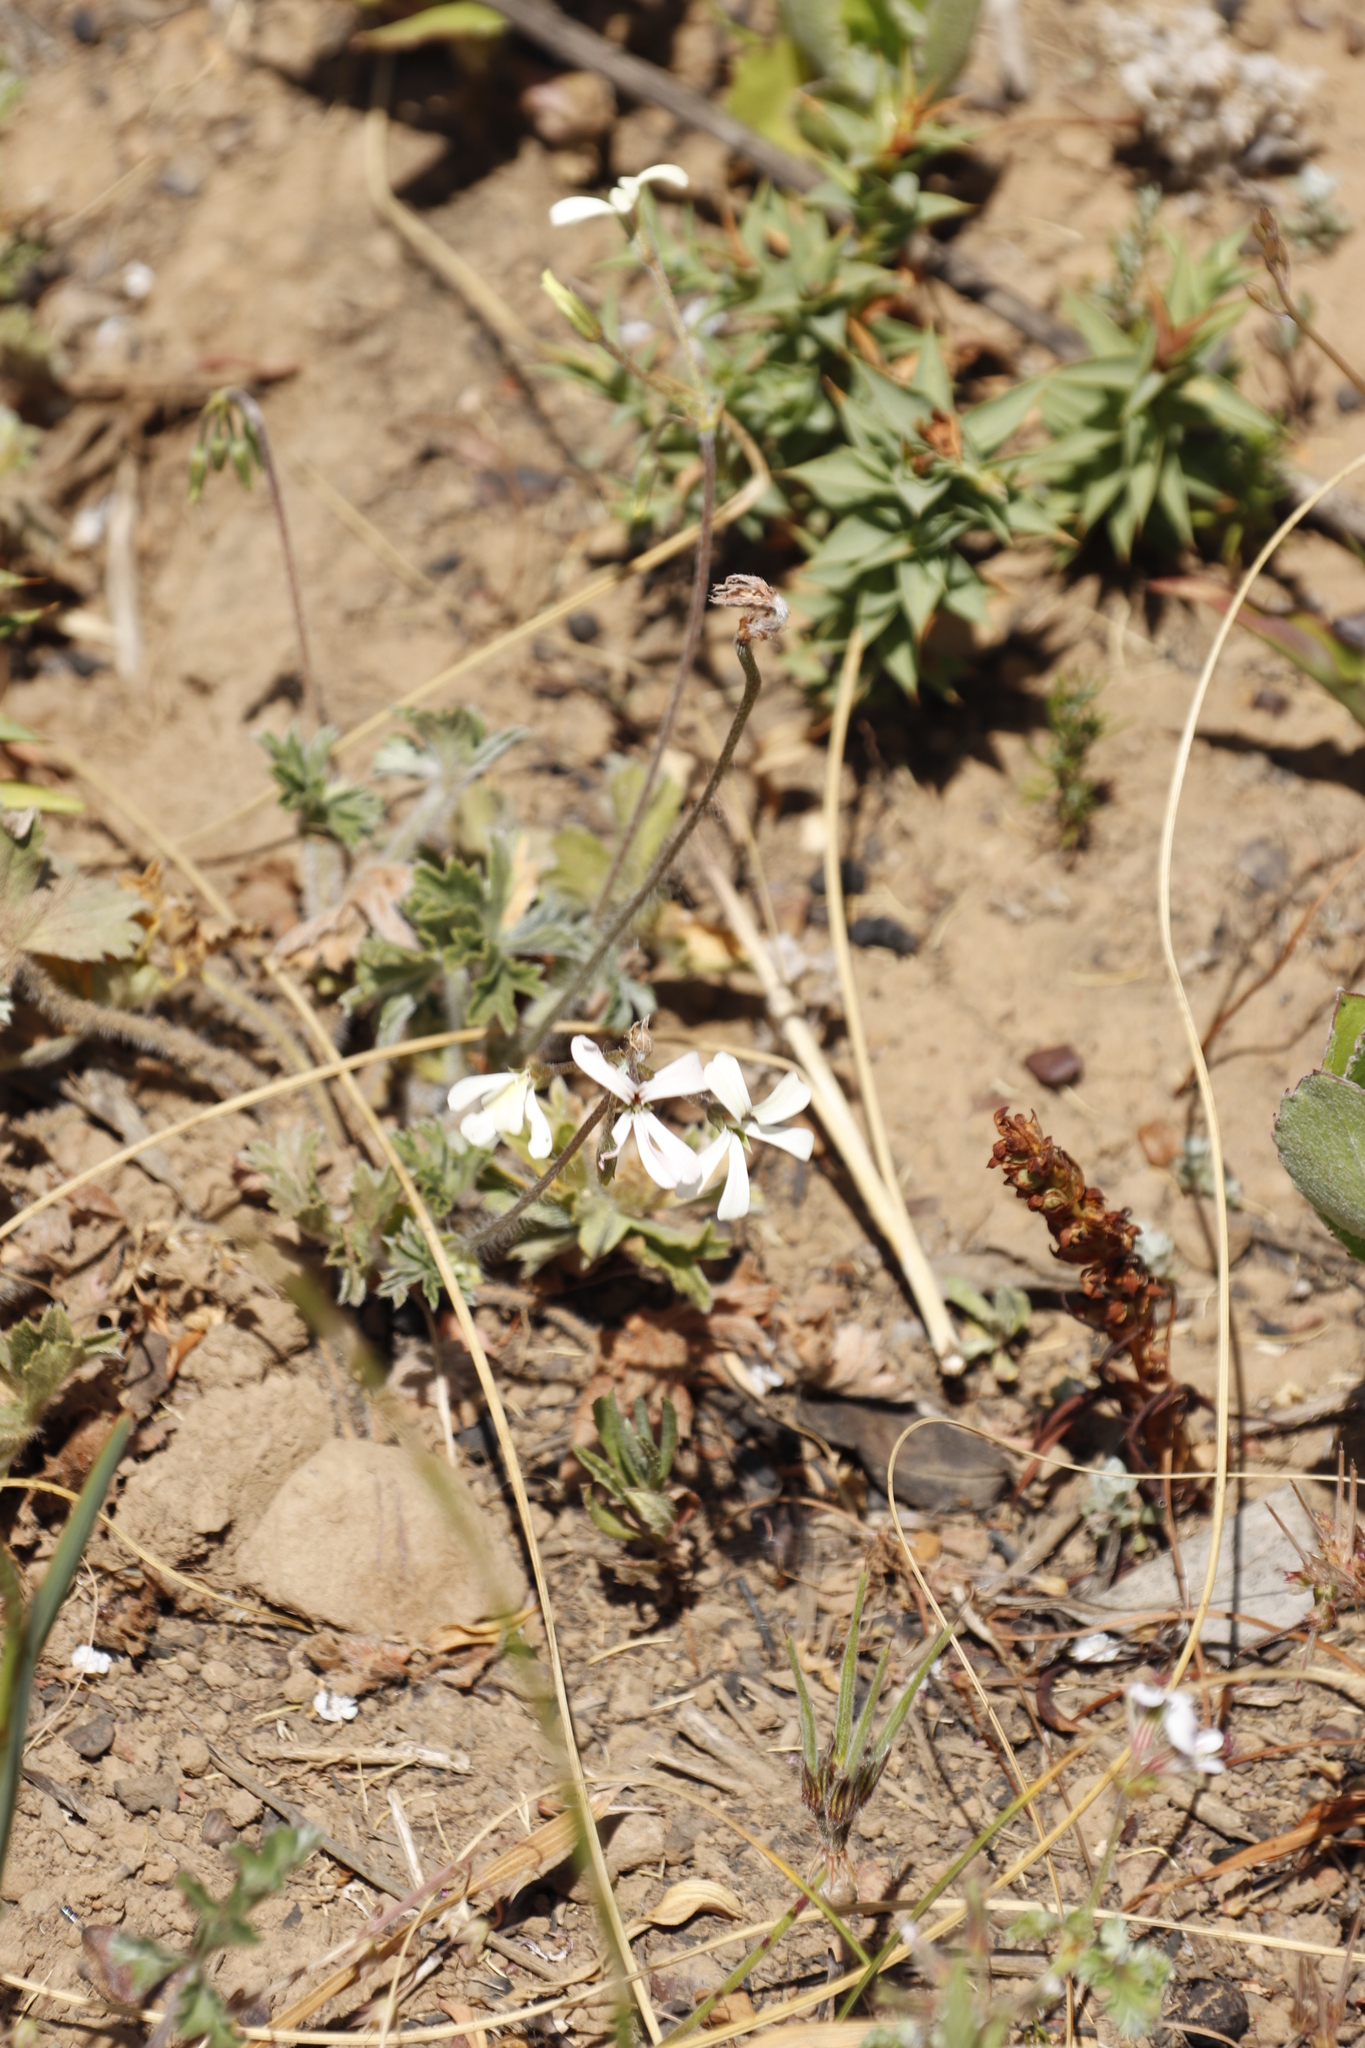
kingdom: Plantae
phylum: Tracheophyta
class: Magnoliopsida
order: Geraniales
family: Geraniaceae
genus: Pelargonium
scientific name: Pelargonium alchemilloides
